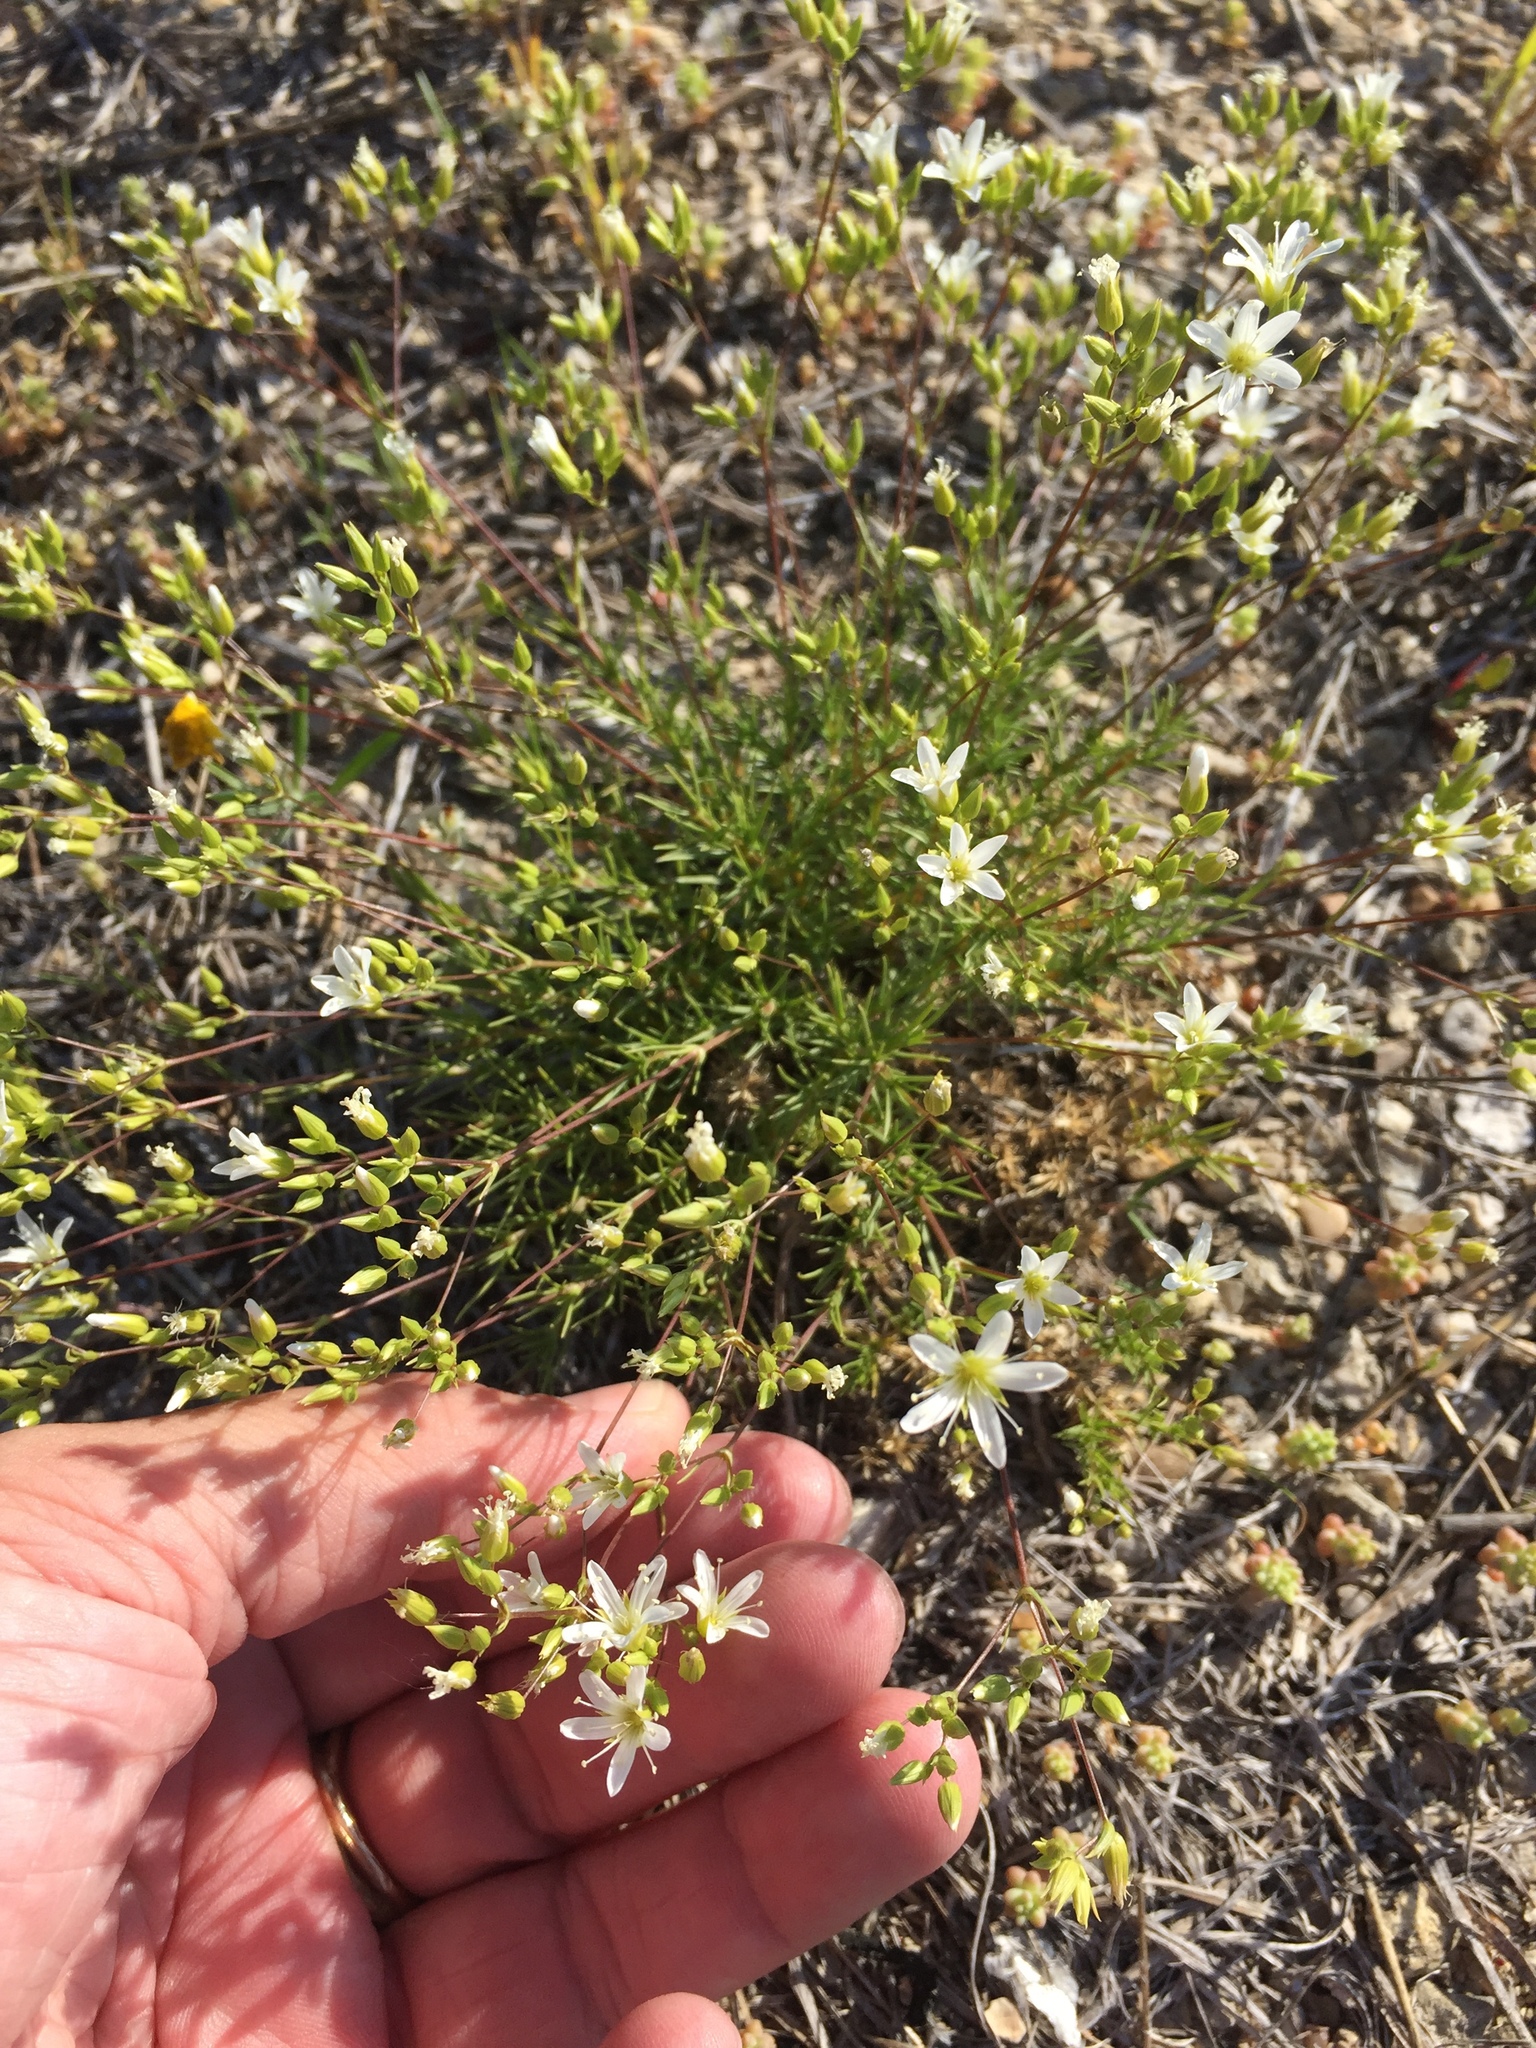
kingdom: Plantae
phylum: Tracheophyta
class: Magnoliopsida
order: Caryophyllales
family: Caryophyllaceae
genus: Sabulina
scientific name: Sabulina michauxii
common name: Michaux's stitchwort
